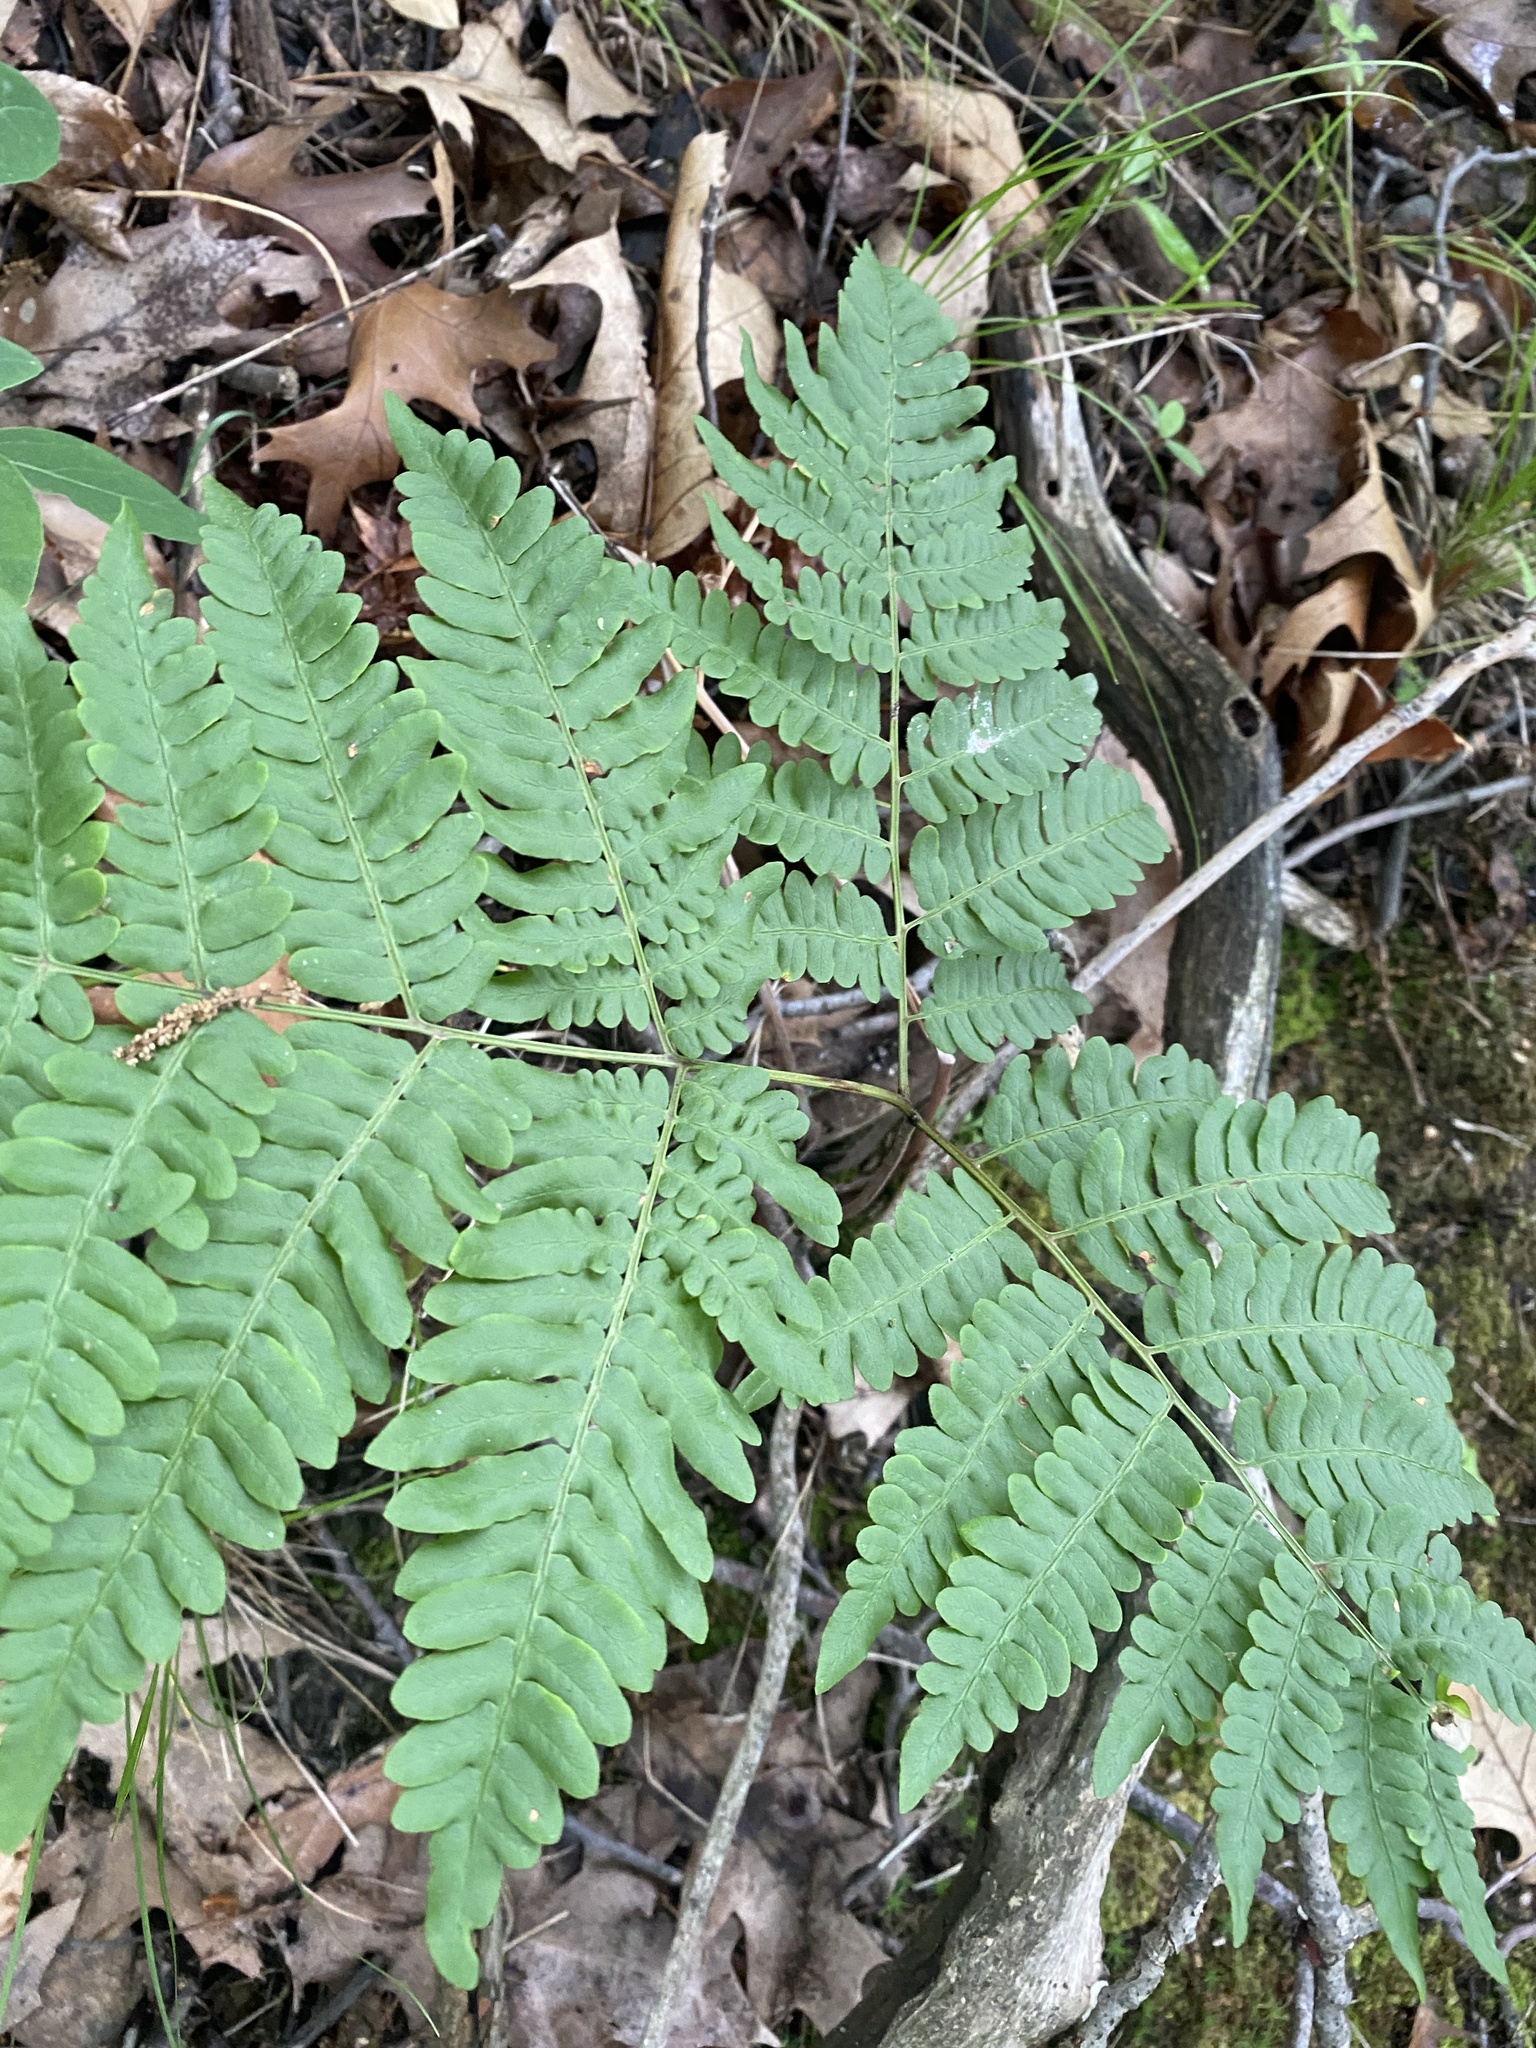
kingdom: Plantae
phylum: Tracheophyta
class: Polypodiopsida
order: Polypodiales
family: Dennstaedtiaceae
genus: Pteridium
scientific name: Pteridium aquilinum
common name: Bracken
